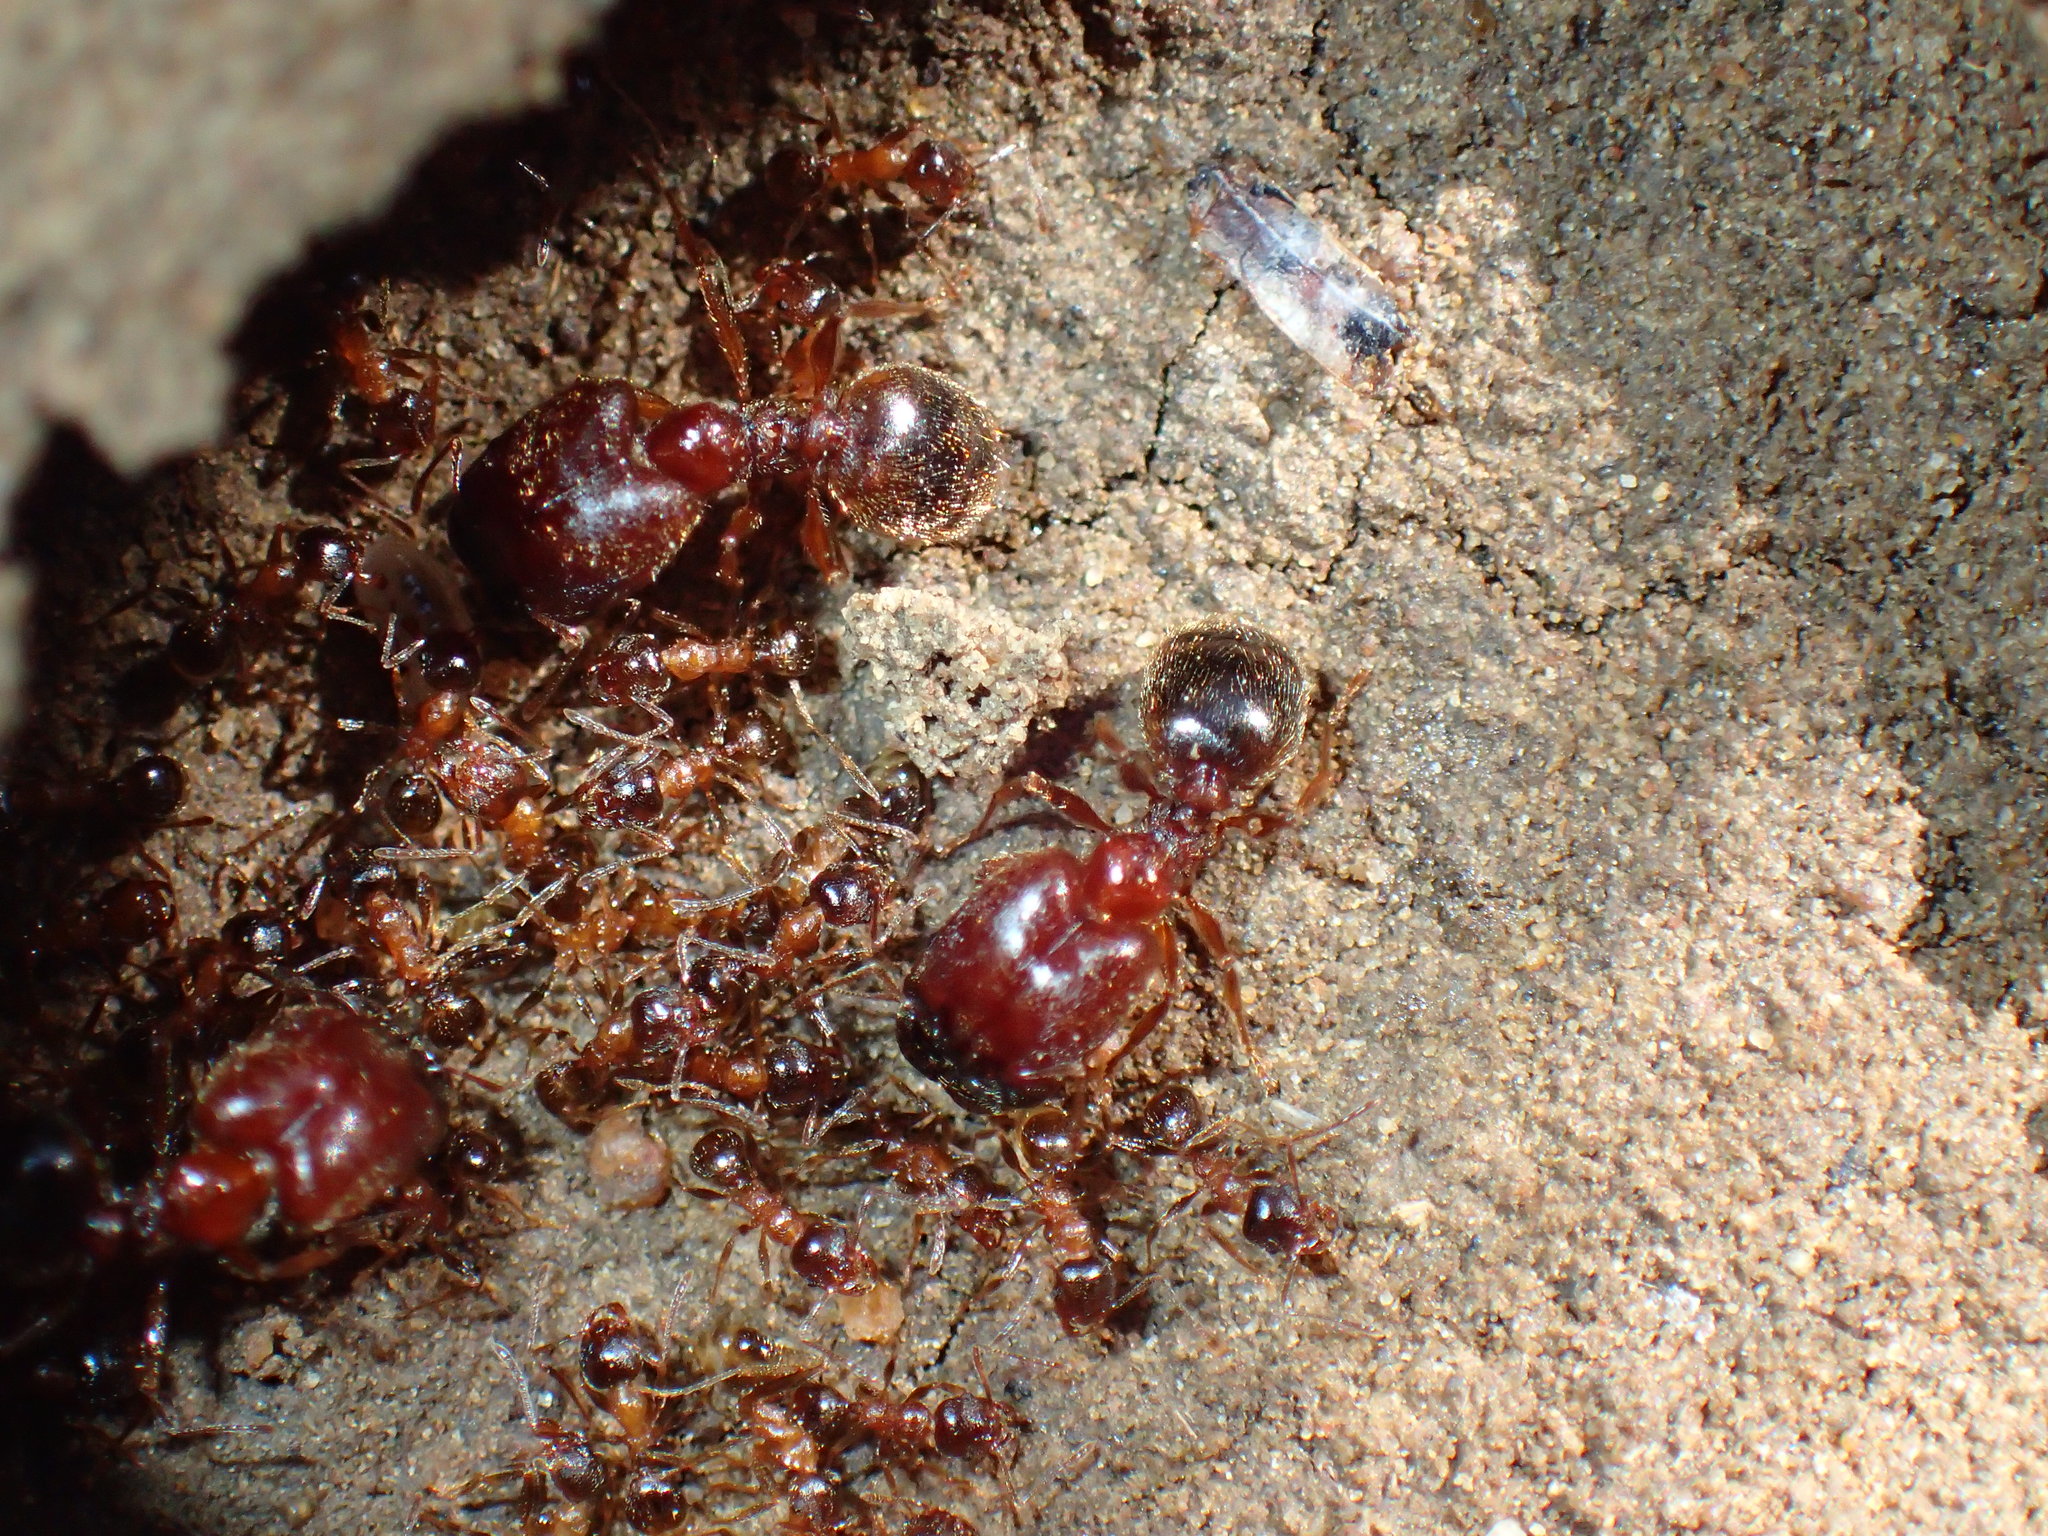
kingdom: Animalia
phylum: Arthropoda
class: Insecta
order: Hymenoptera
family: Formicidae
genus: Pheidole
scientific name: Pheidole caffra
